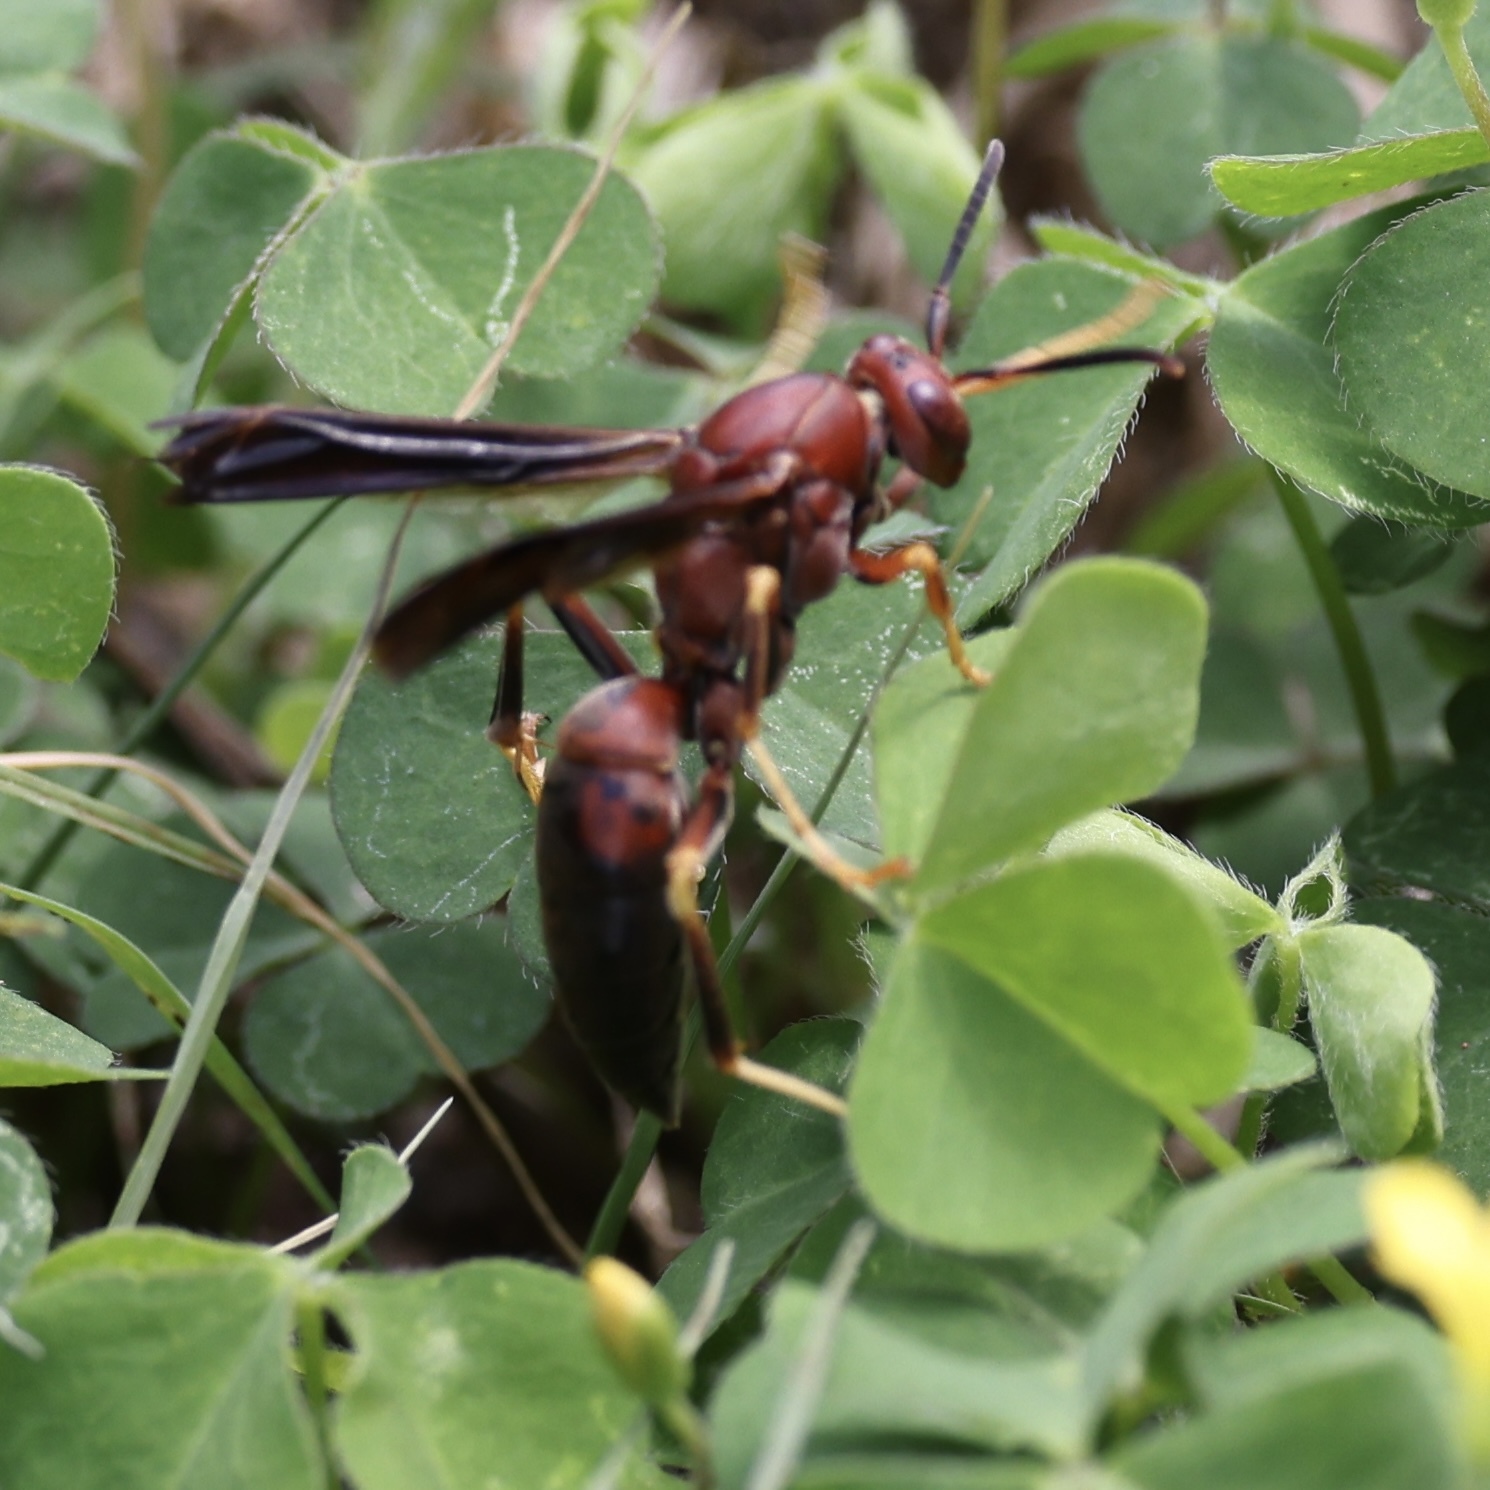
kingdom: Animalia
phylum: Arthropoda
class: Insecta
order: Hymenoptera
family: Eumenidae
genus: Polistes
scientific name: Polistes metricus
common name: Metric paper wasp
